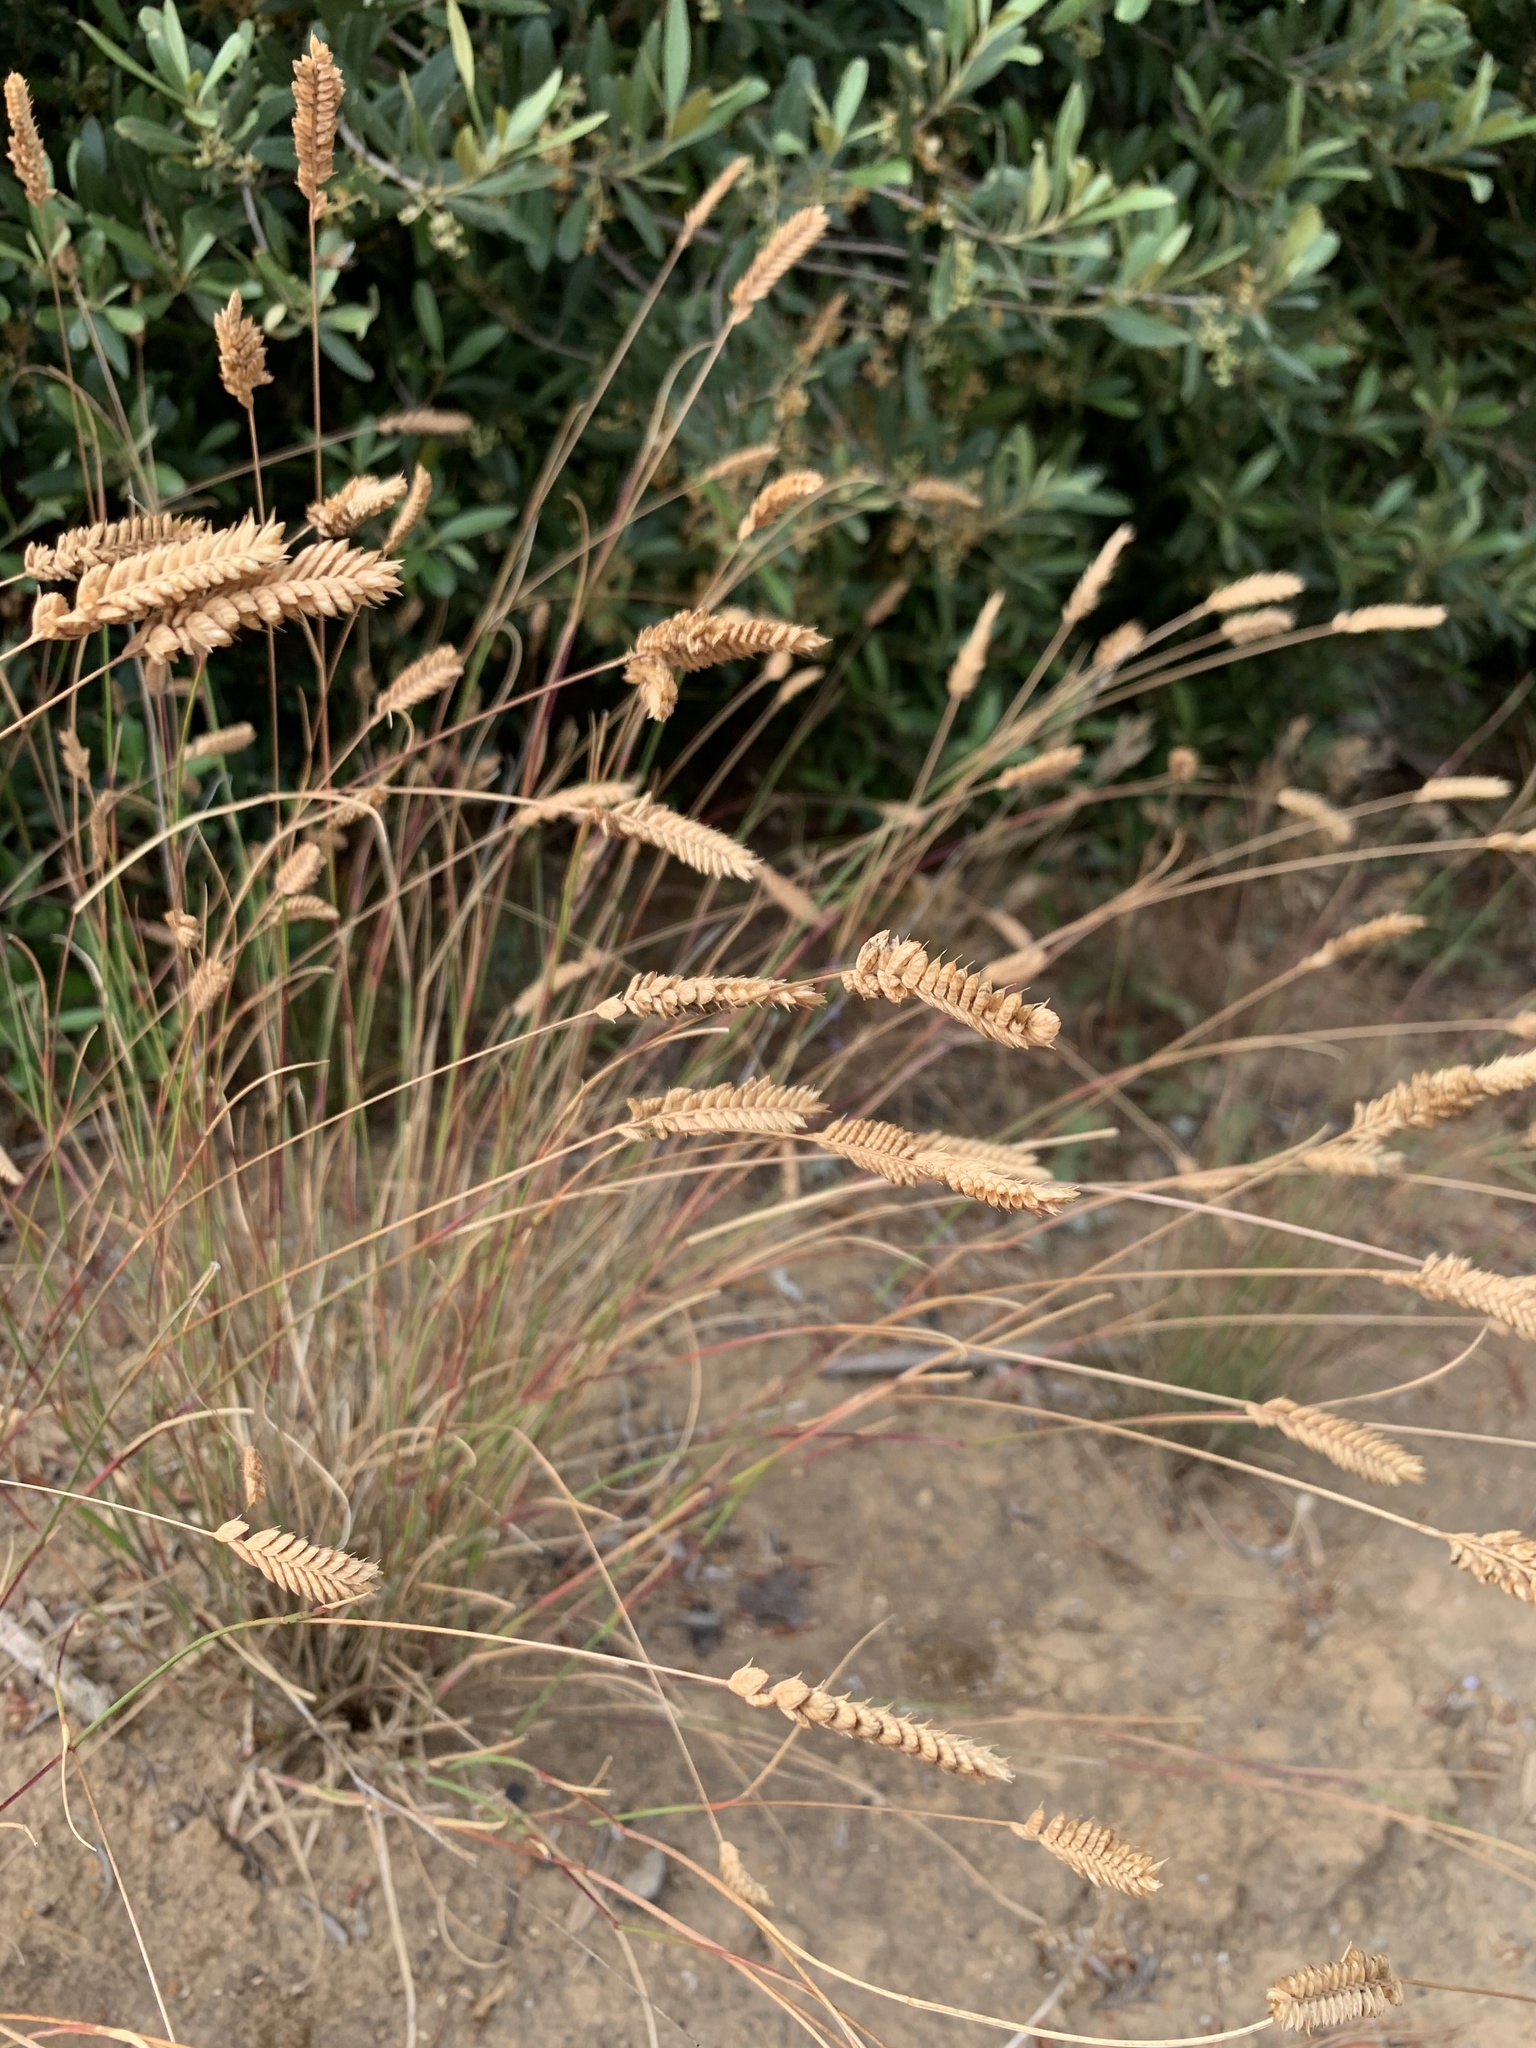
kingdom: Plantae
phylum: Tracheophyta
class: Liliopsida
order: Poales
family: Poaceae
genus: Tribolium
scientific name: Tribolium uniolae
